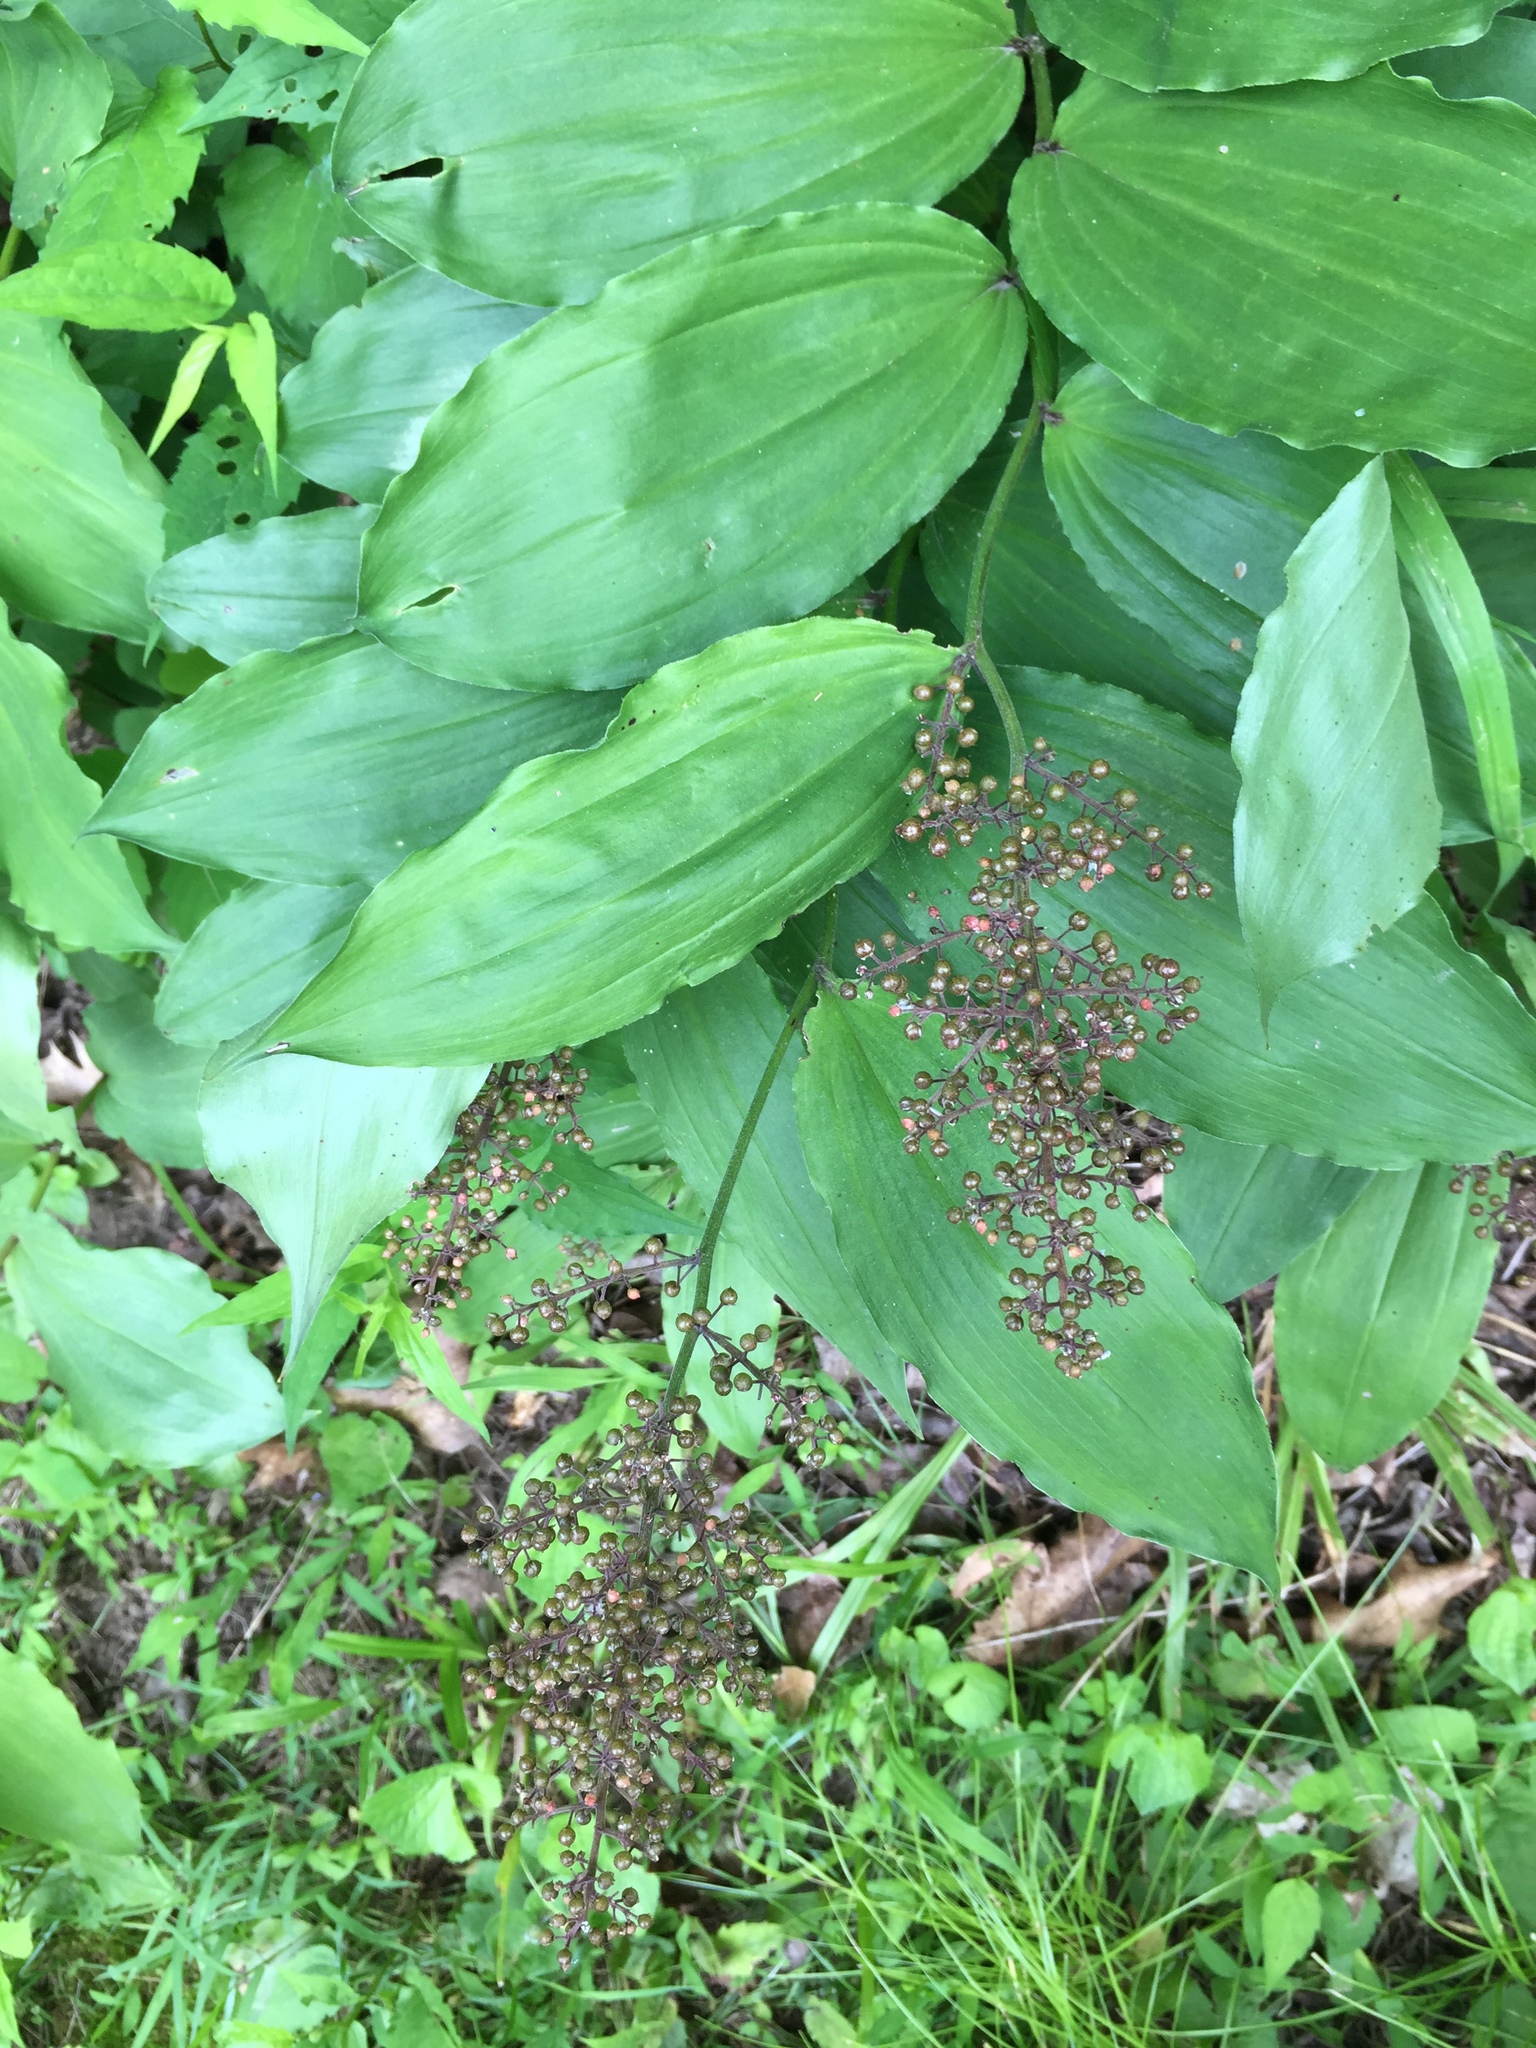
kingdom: Plantae
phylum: Tracheophyta
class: Liliopsida
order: Asparagales
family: Asparagaceae
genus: Maianthemum
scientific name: Maianthemum racemosum
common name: False spikenard
